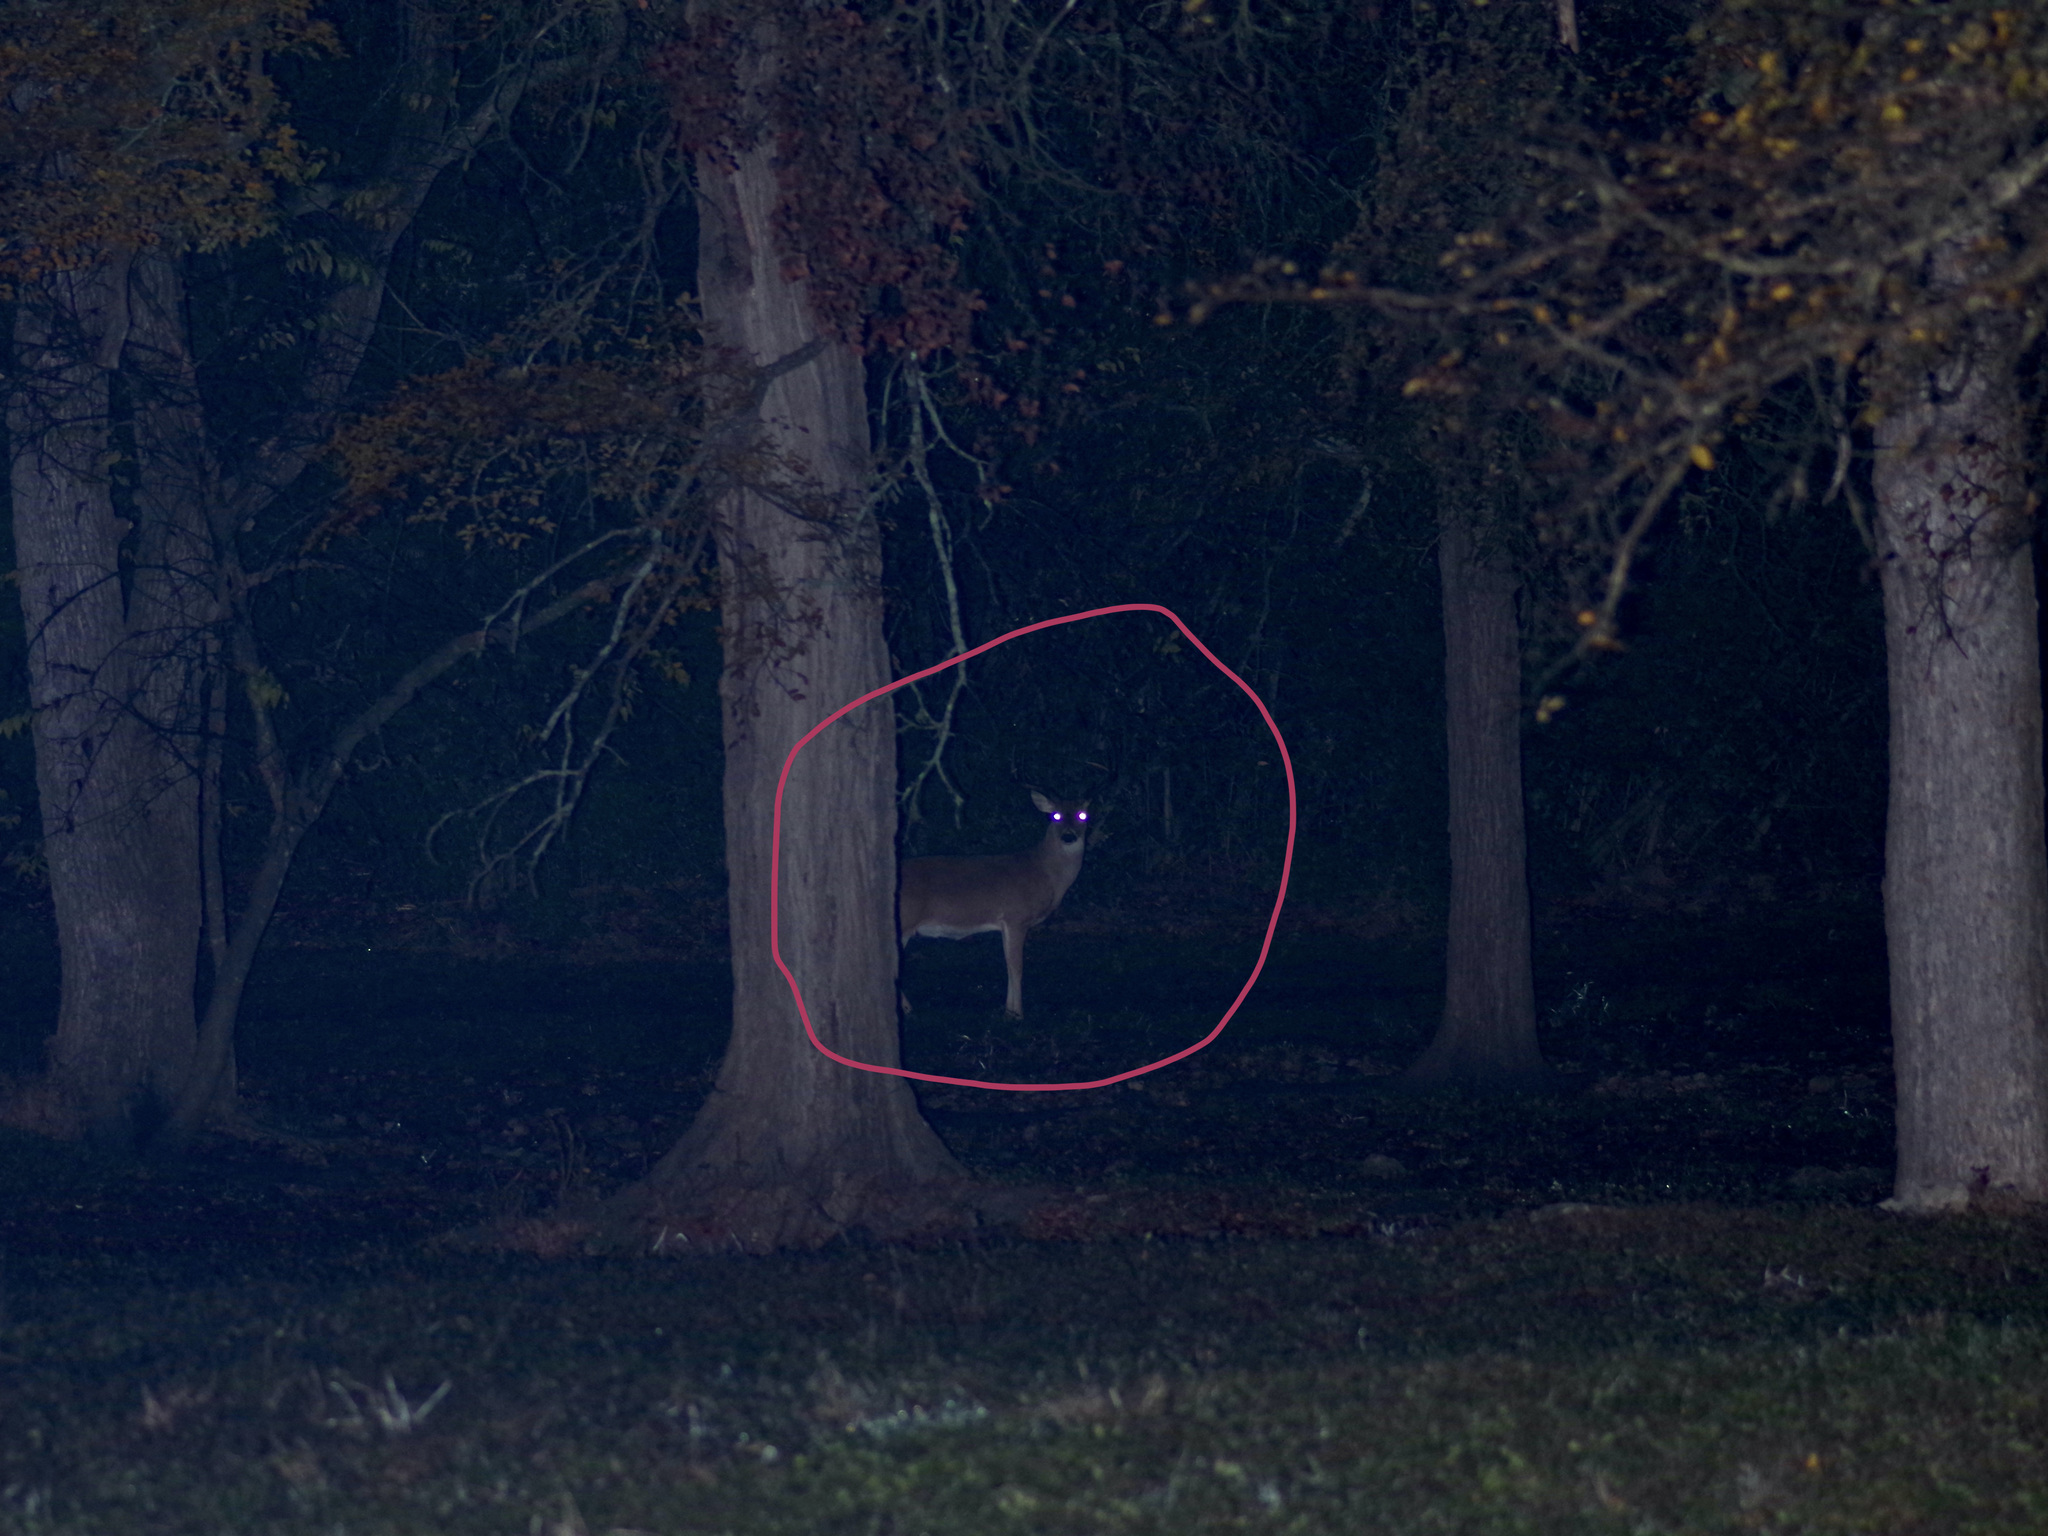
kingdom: Animalia
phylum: Chordata
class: Mammalia
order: Artiodactyla
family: Cervidae
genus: Odocoileus
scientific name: Odocoileus virginianus
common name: White-tailed deer
